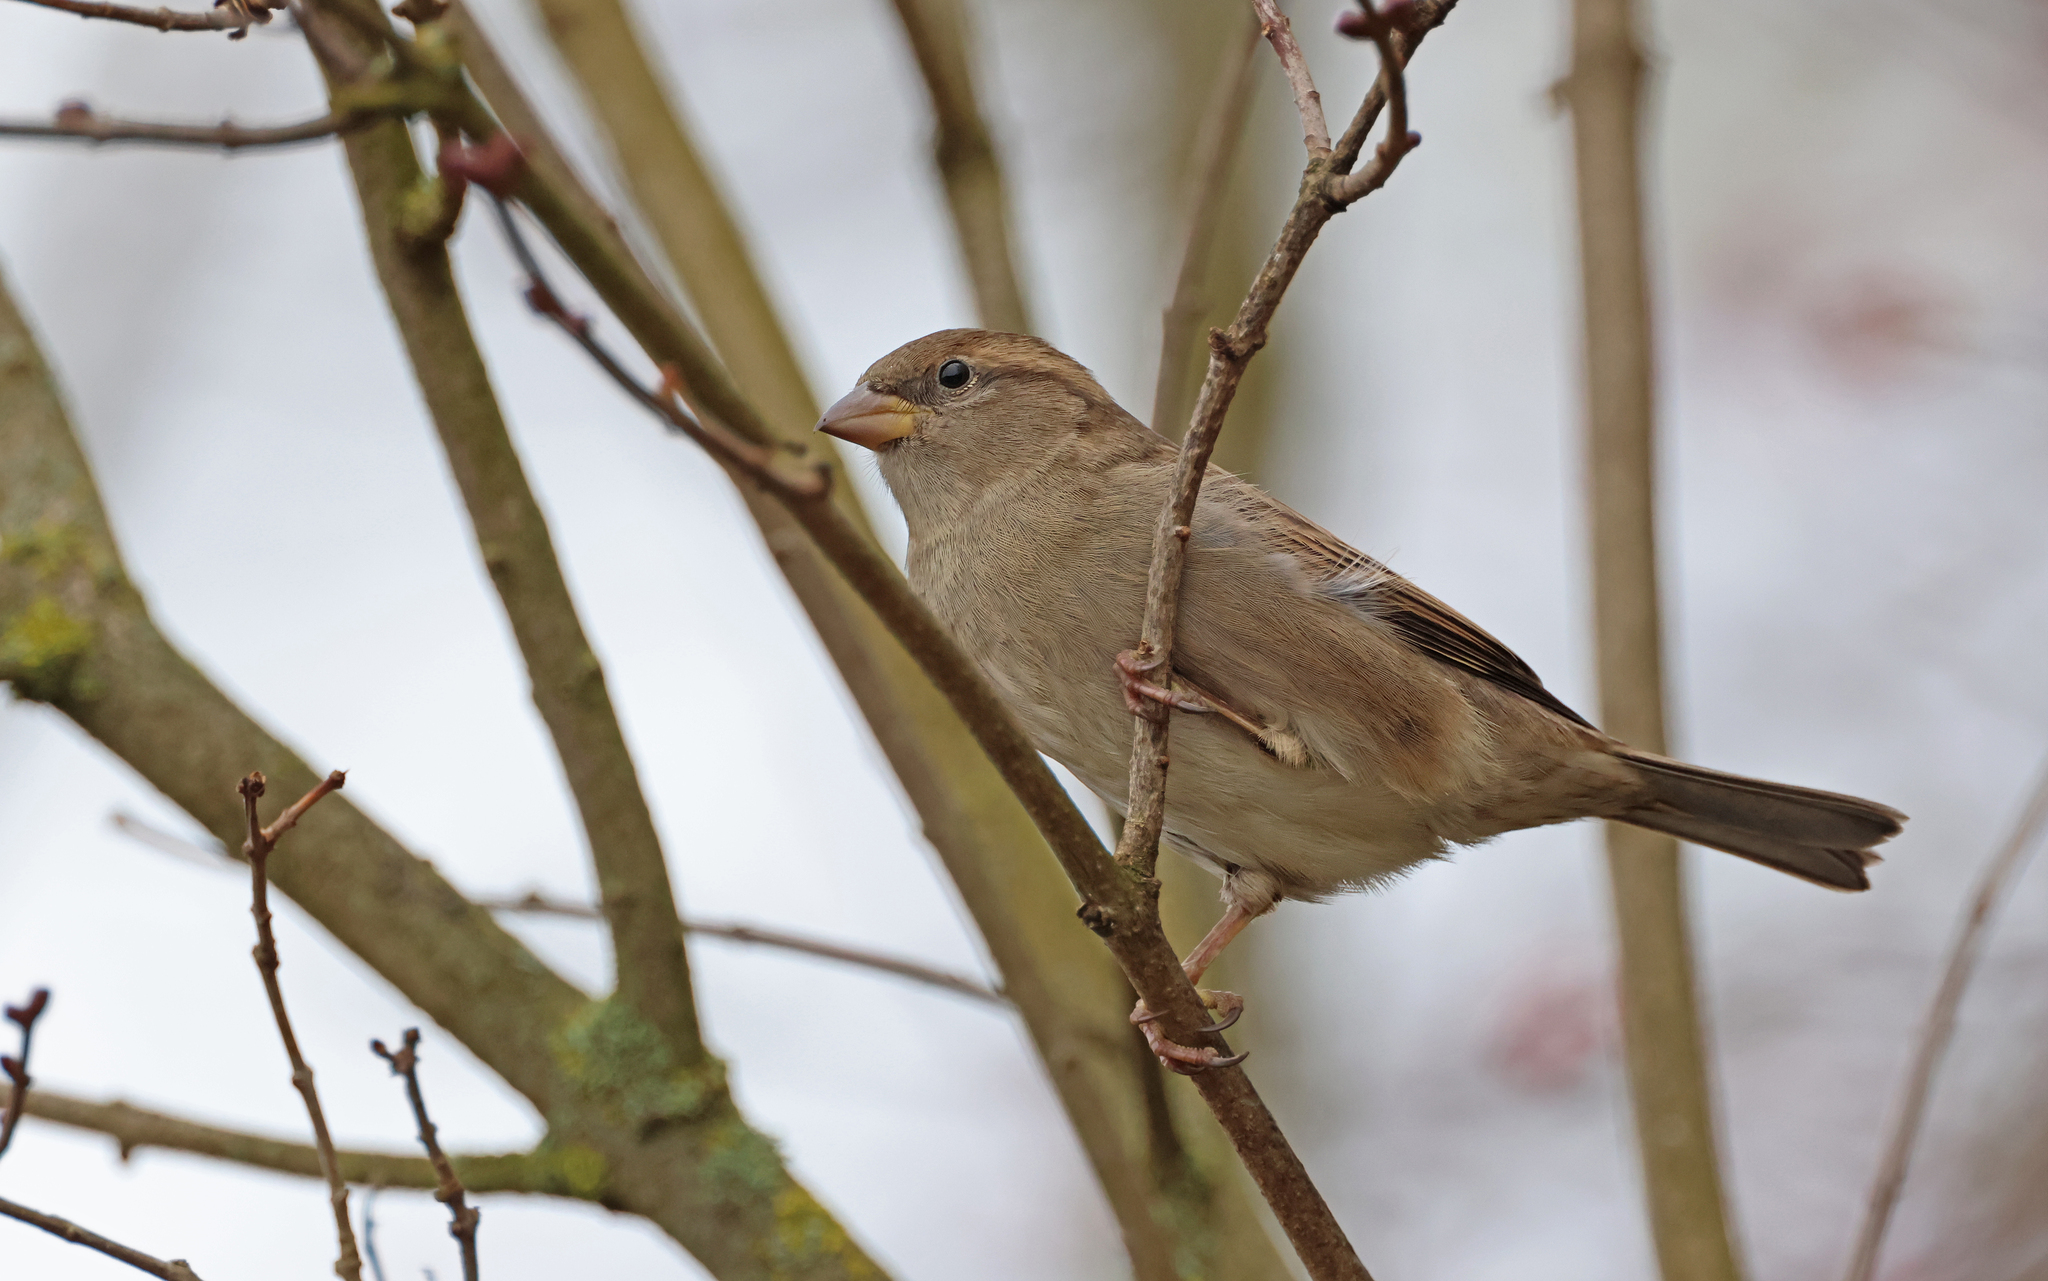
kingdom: Animalia
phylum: Chordata
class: Aves
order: Passeriformes
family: Passeridae
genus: Passer
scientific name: Passer domesticus
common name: House sparrow
